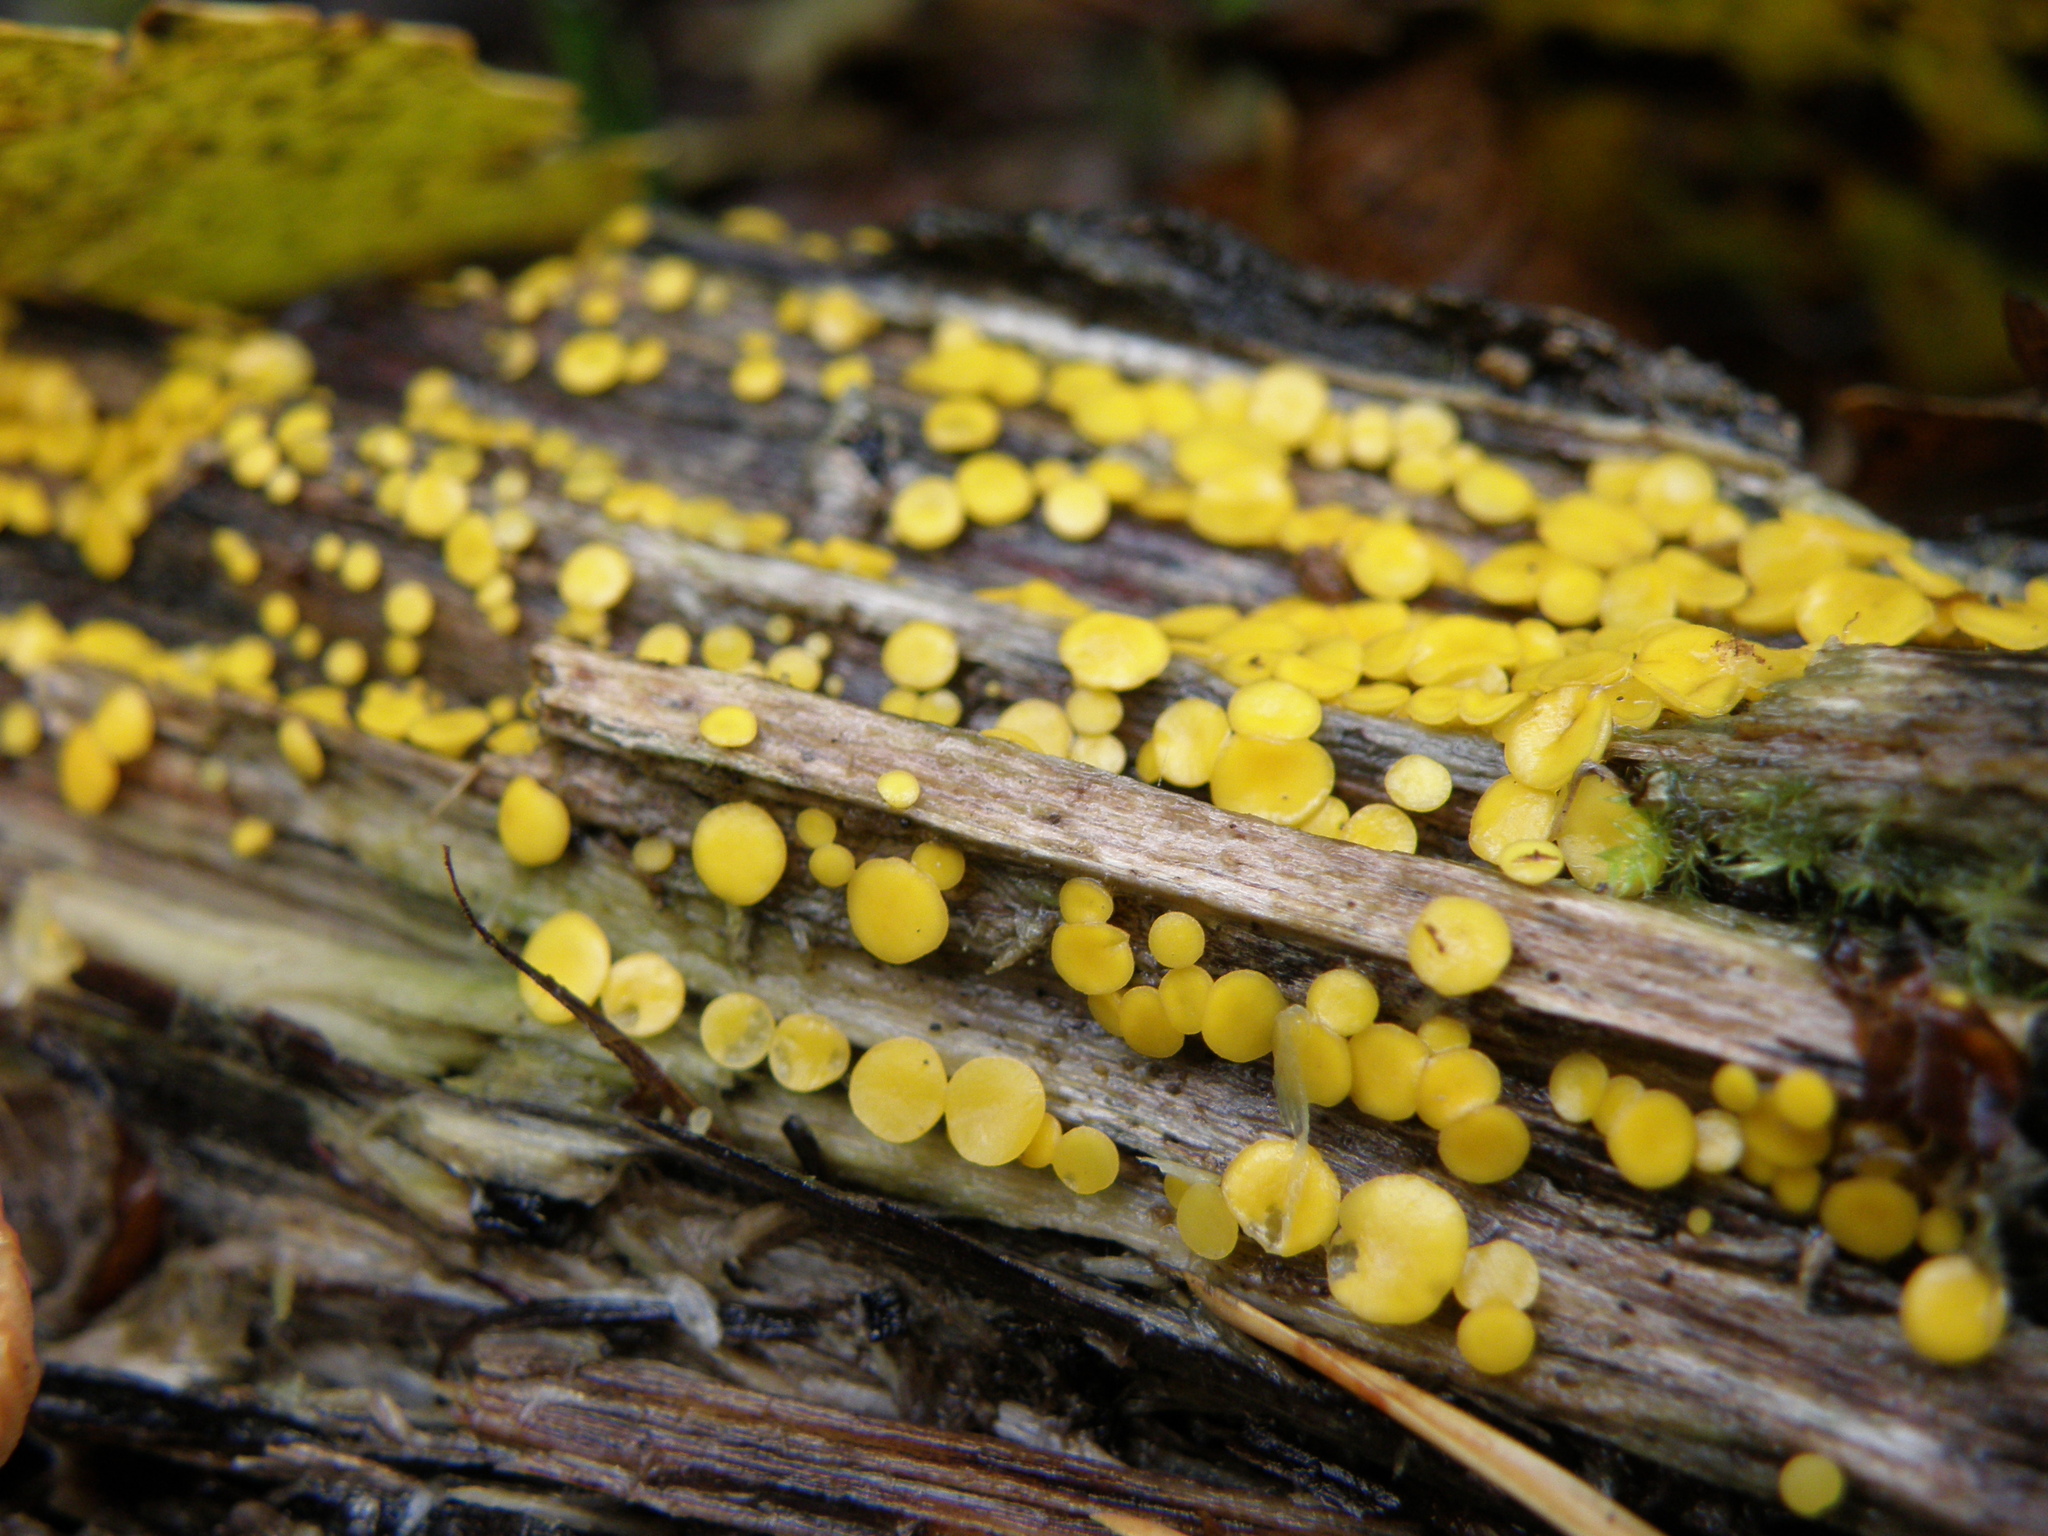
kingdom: Fungi
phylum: Ascomycota
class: Leotiomycetes
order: Helotiales
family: Pezizellaceae
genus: Calycina
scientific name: Calycina citrina
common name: Yellow fairy cups
